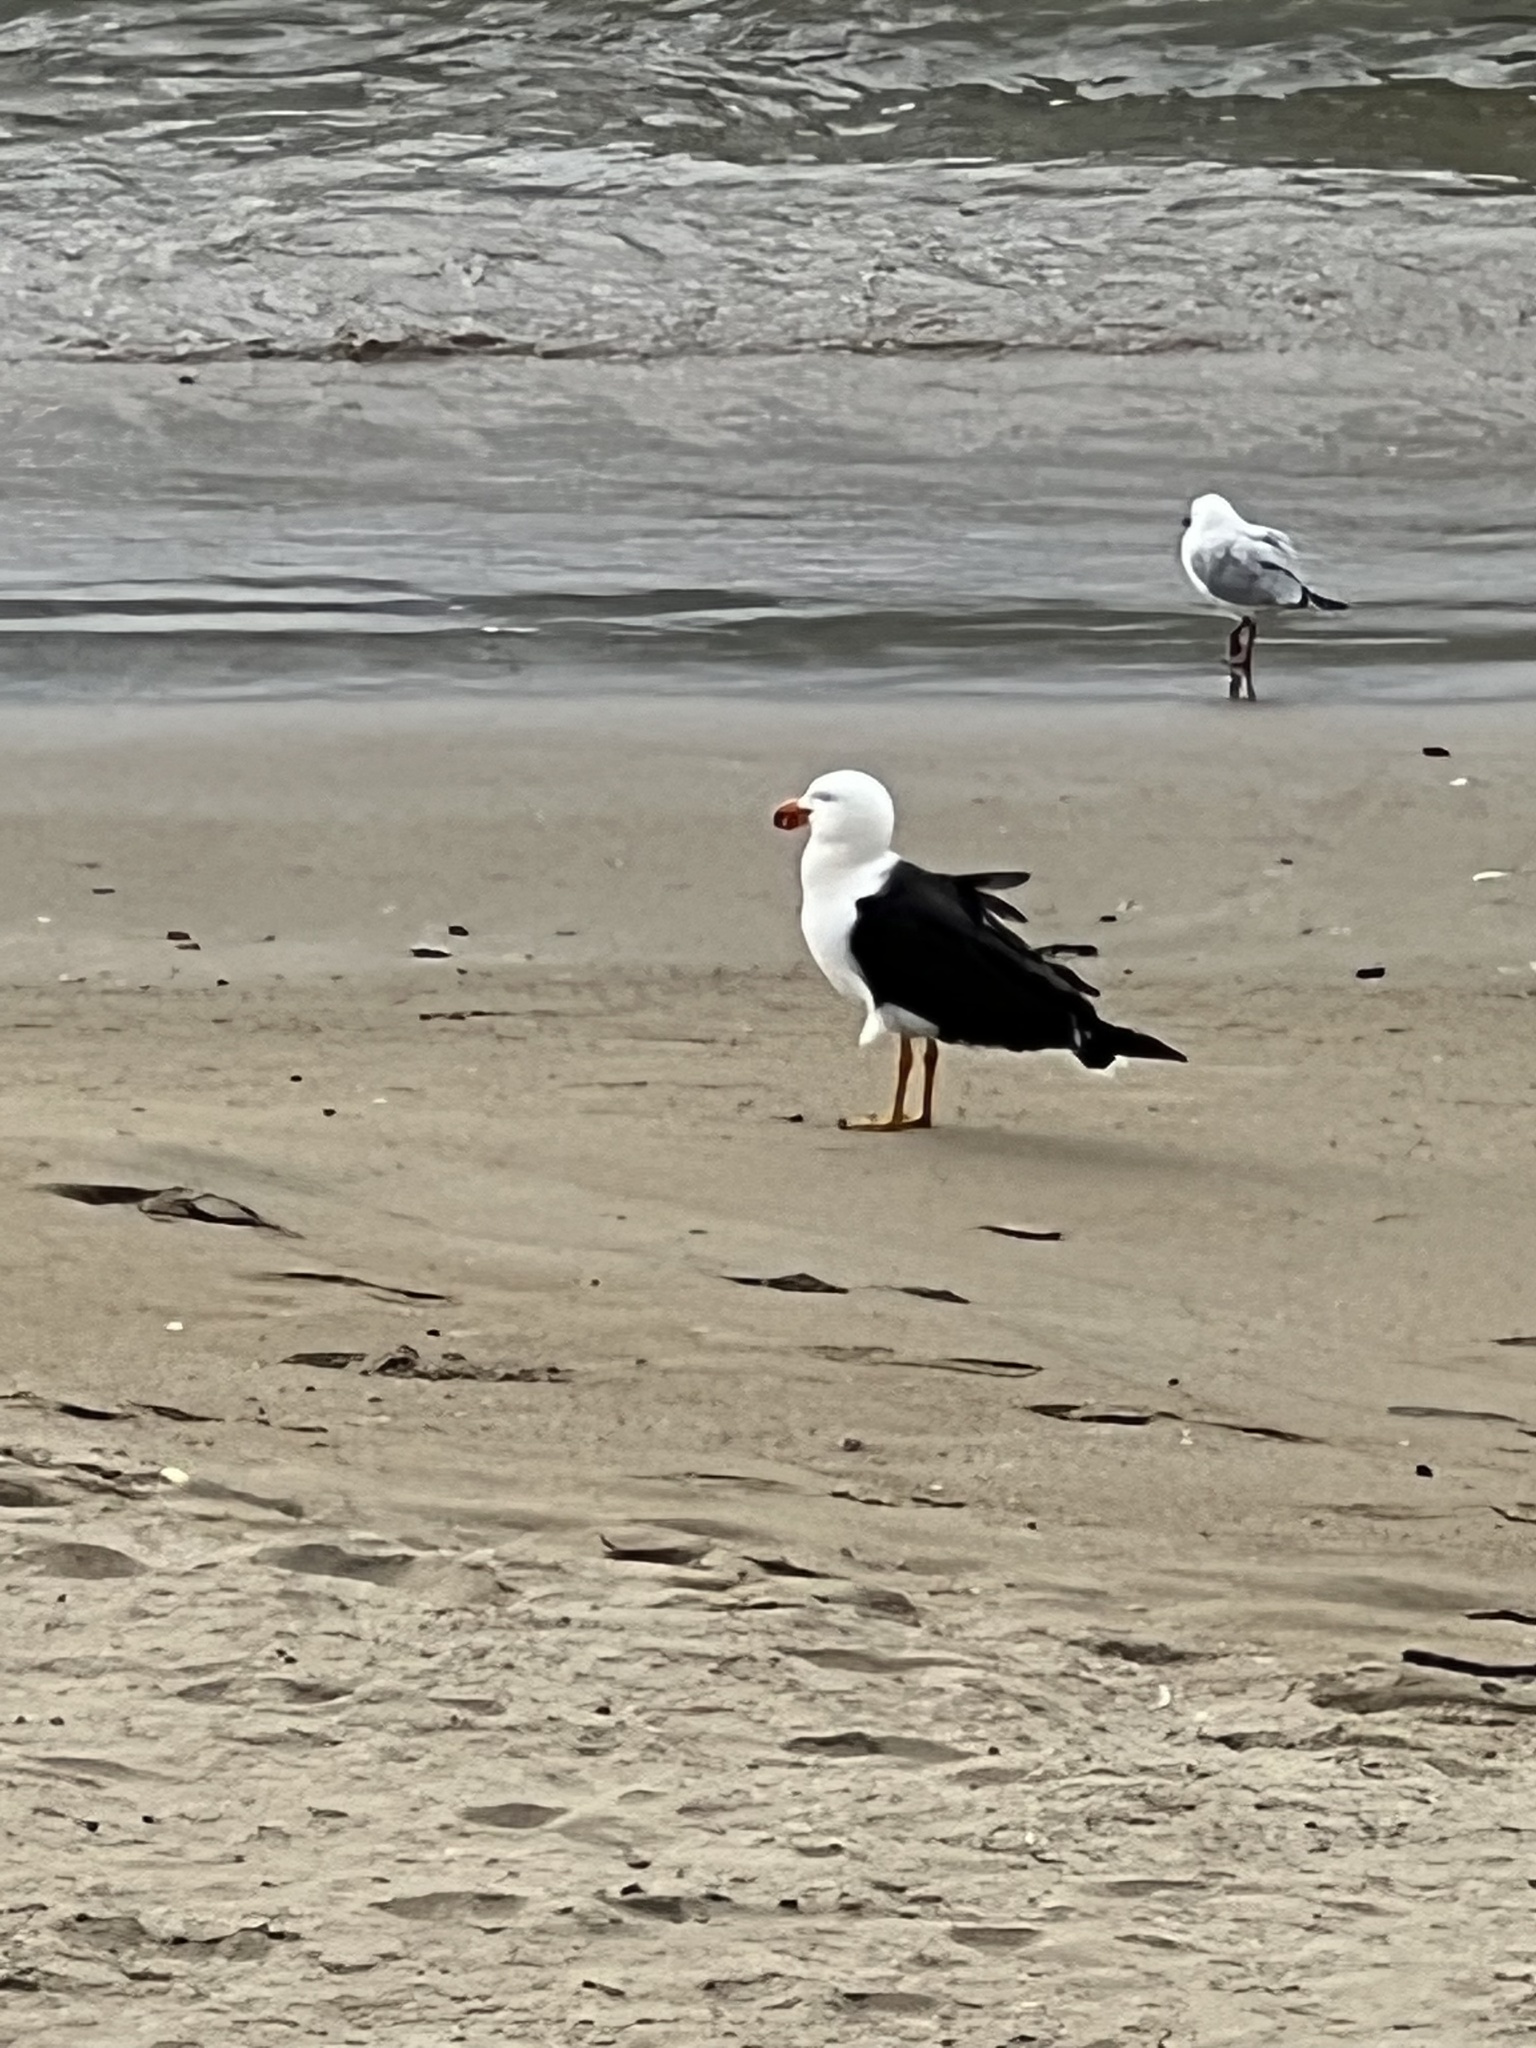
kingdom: Animalia
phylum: Chordata
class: Aves
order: Charadriiformes
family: Laridae
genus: Larus
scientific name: Larus pacificus
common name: Pacific gull
